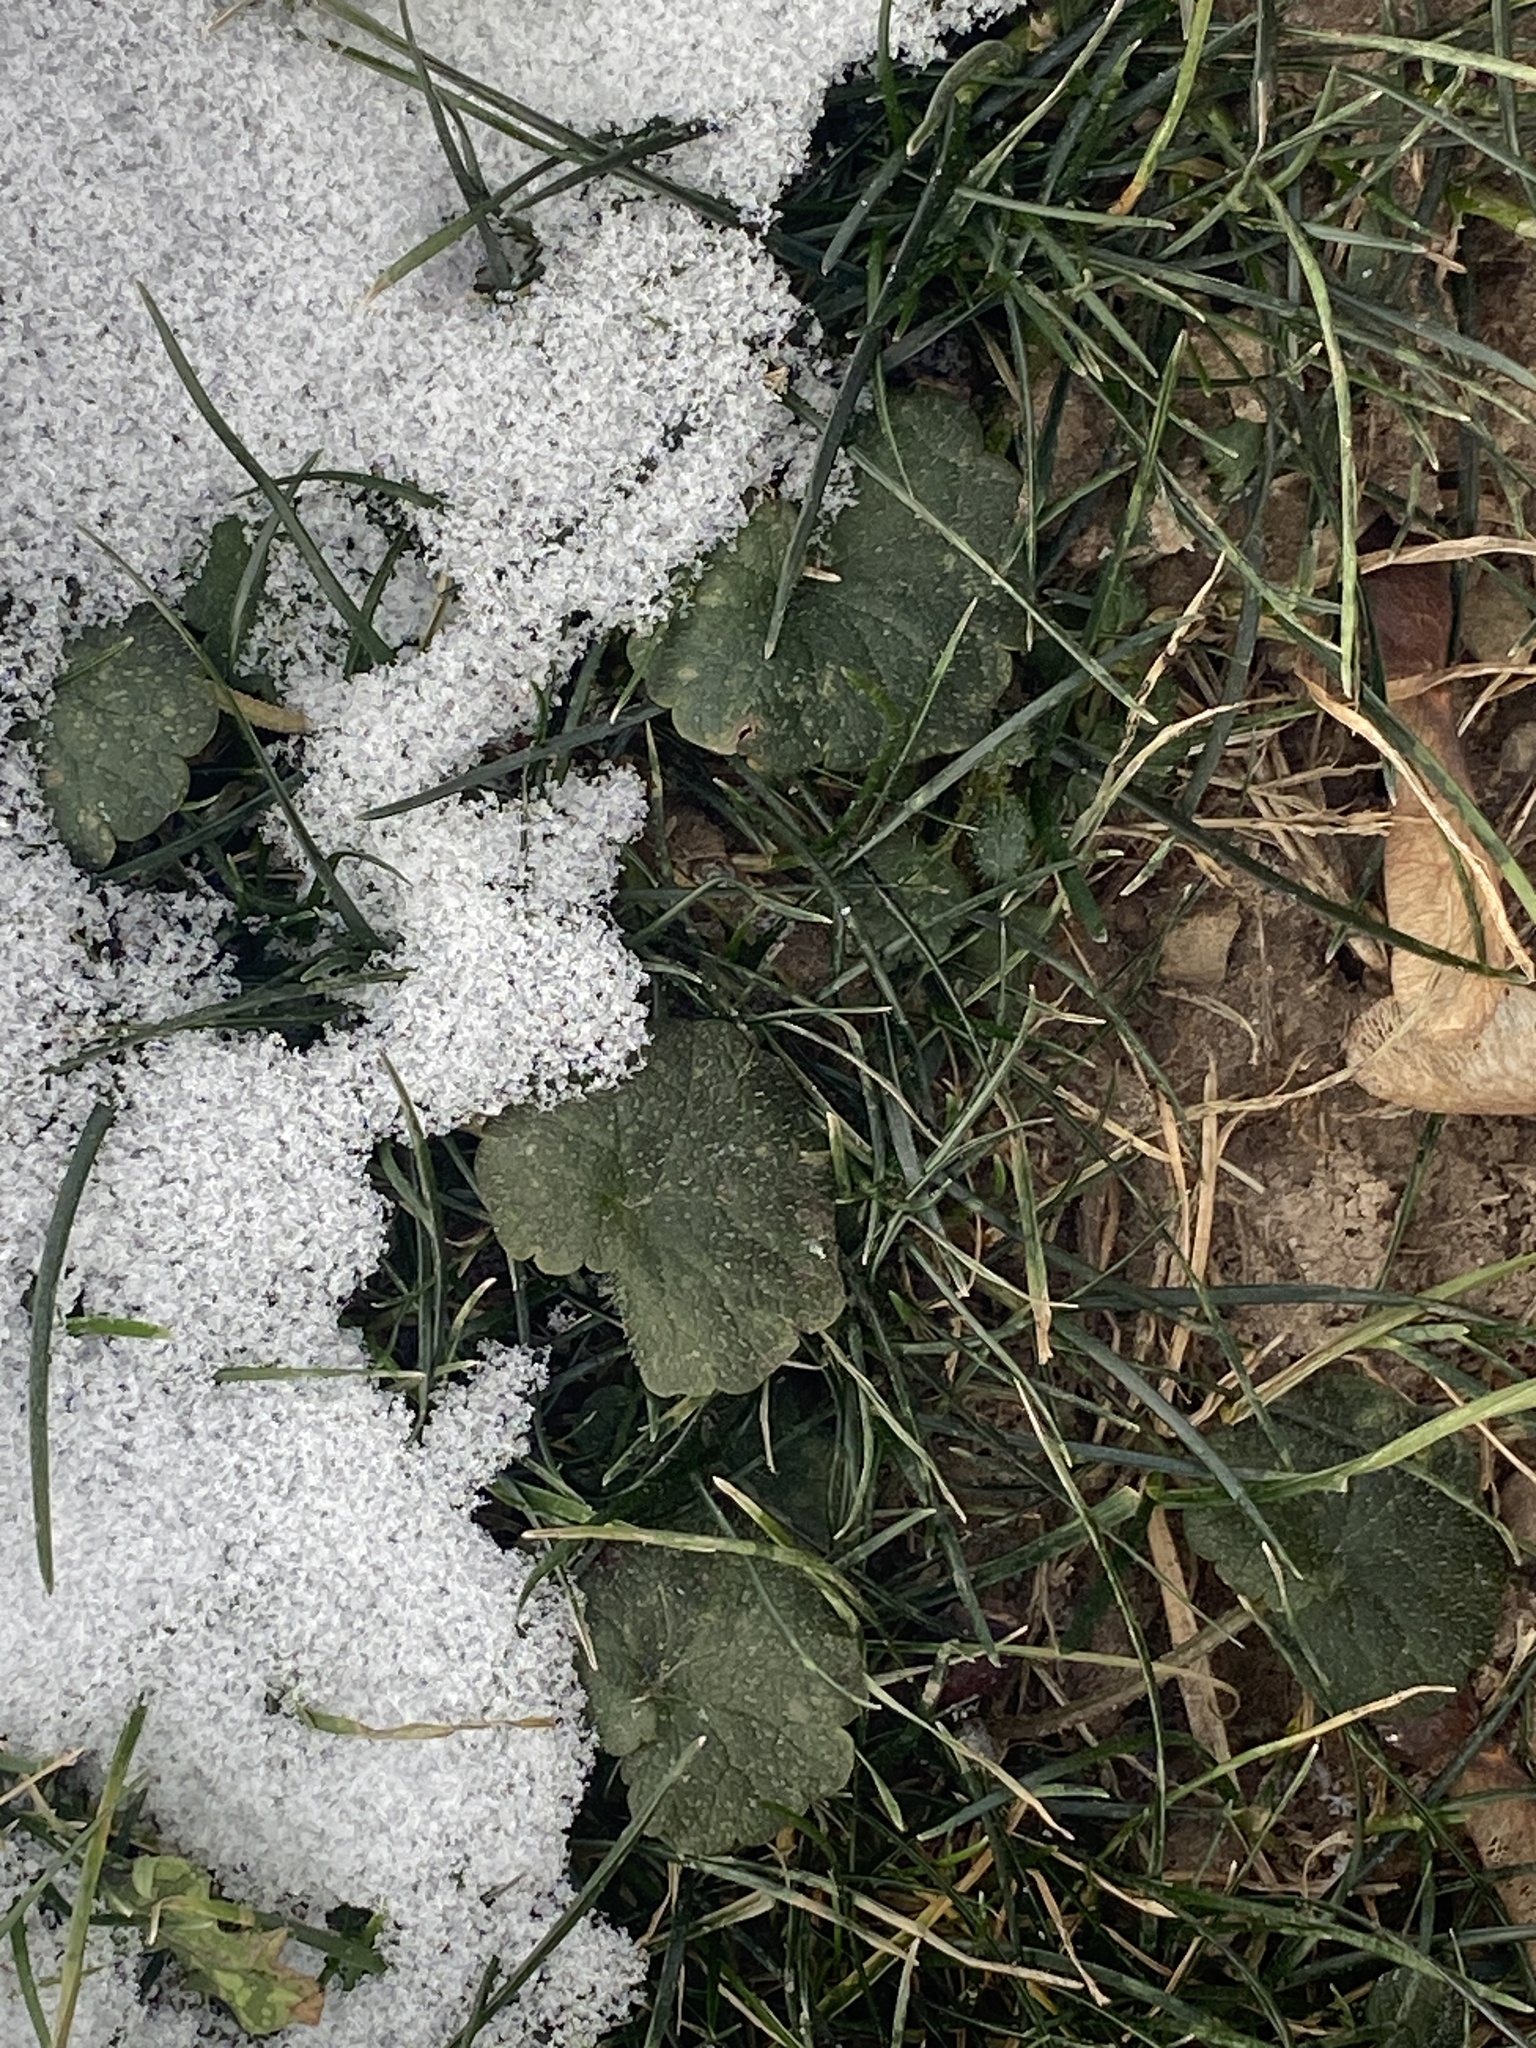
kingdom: Plantae
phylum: Tracheophyta
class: Magnoliopsida
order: Lamiales
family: Lamiaceae
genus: Glechoma
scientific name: Glechoma hederacea
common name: Ground ivy
